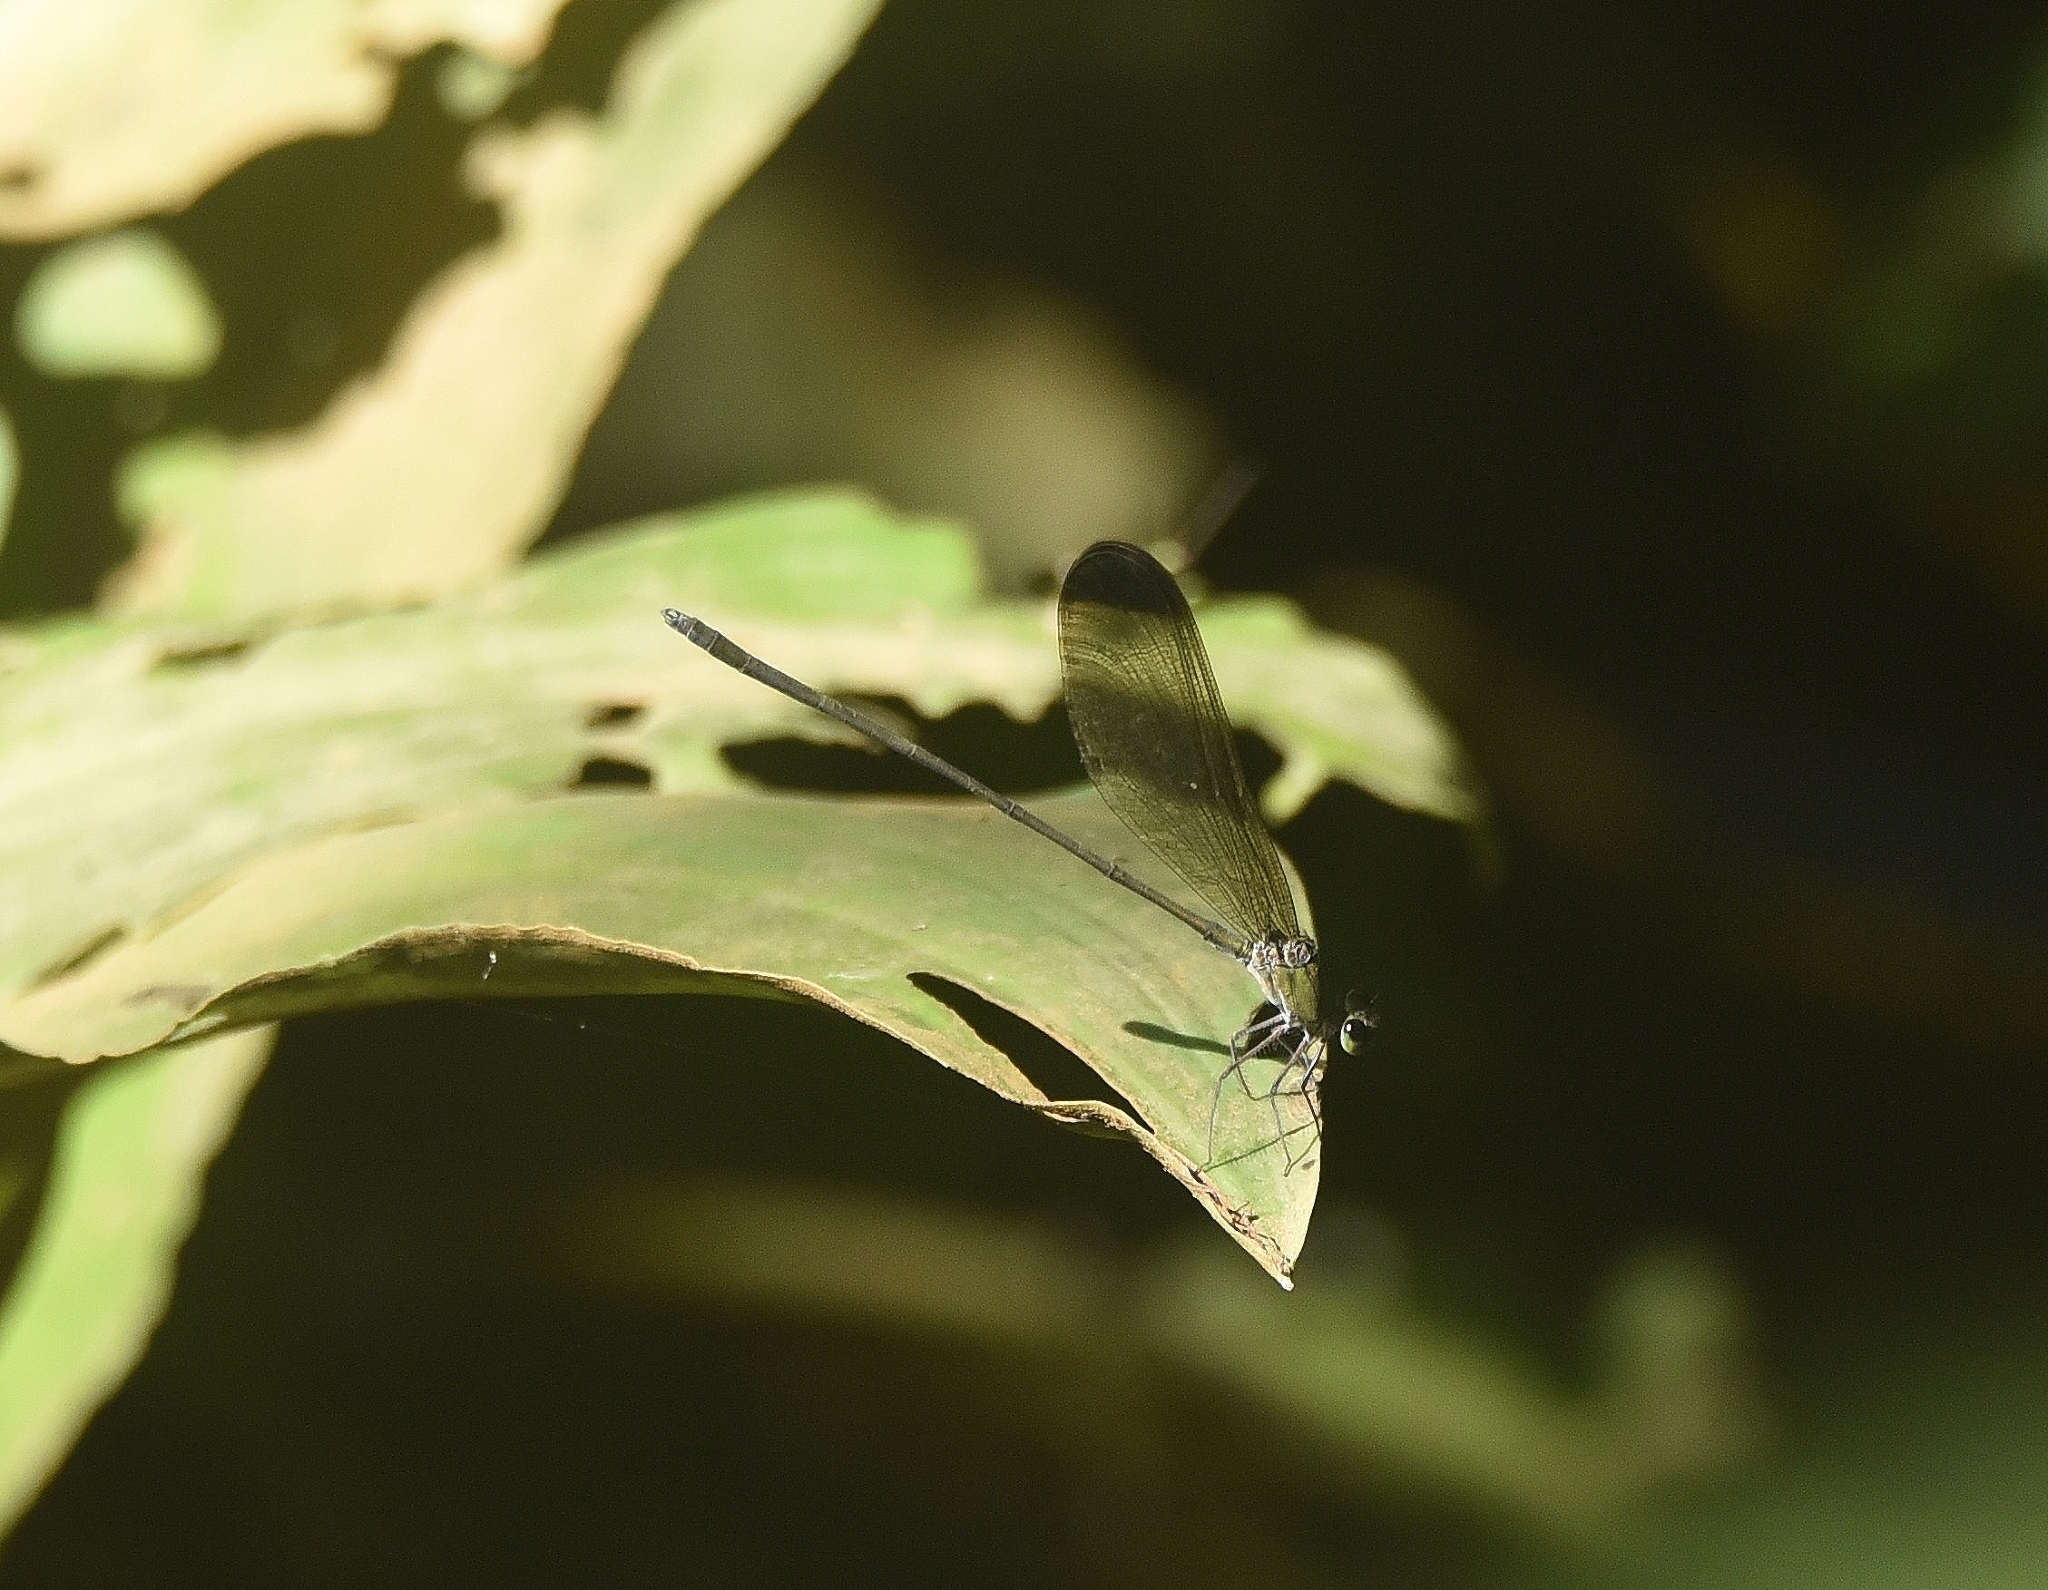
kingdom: Animalia
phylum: Arthropoda
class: Insecta
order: Odonata
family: Calopterygidae
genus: Vestalis
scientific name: Vestalis apicalis
